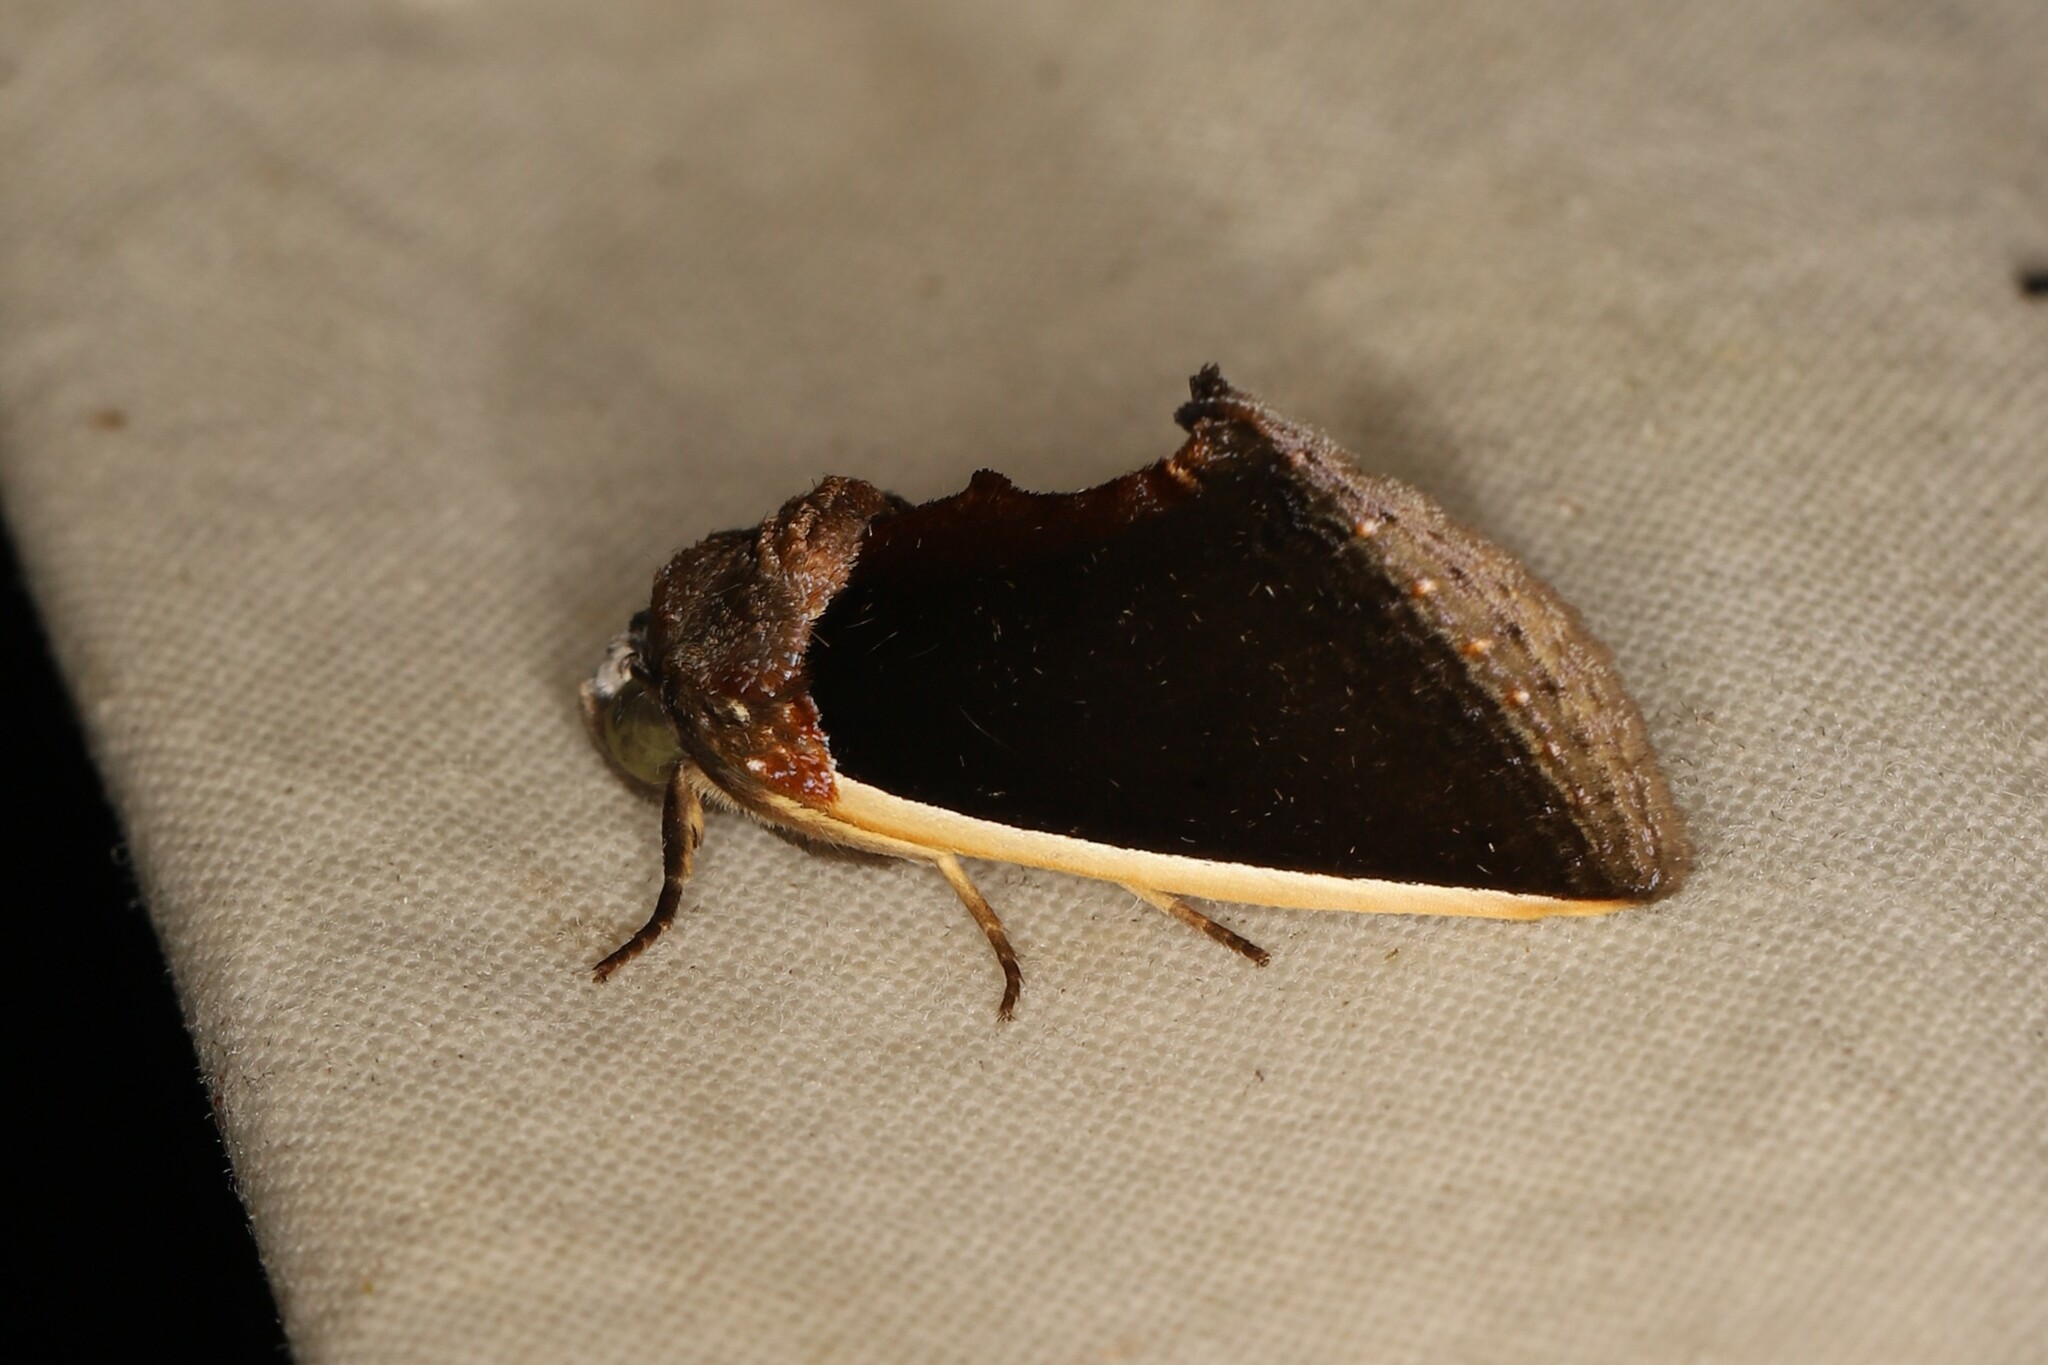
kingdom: Animalia
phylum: Arthropoda
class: Insecta
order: Lepidoptera
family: Erebidae
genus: Gonodonta
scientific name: Gonodonta pyrgo
